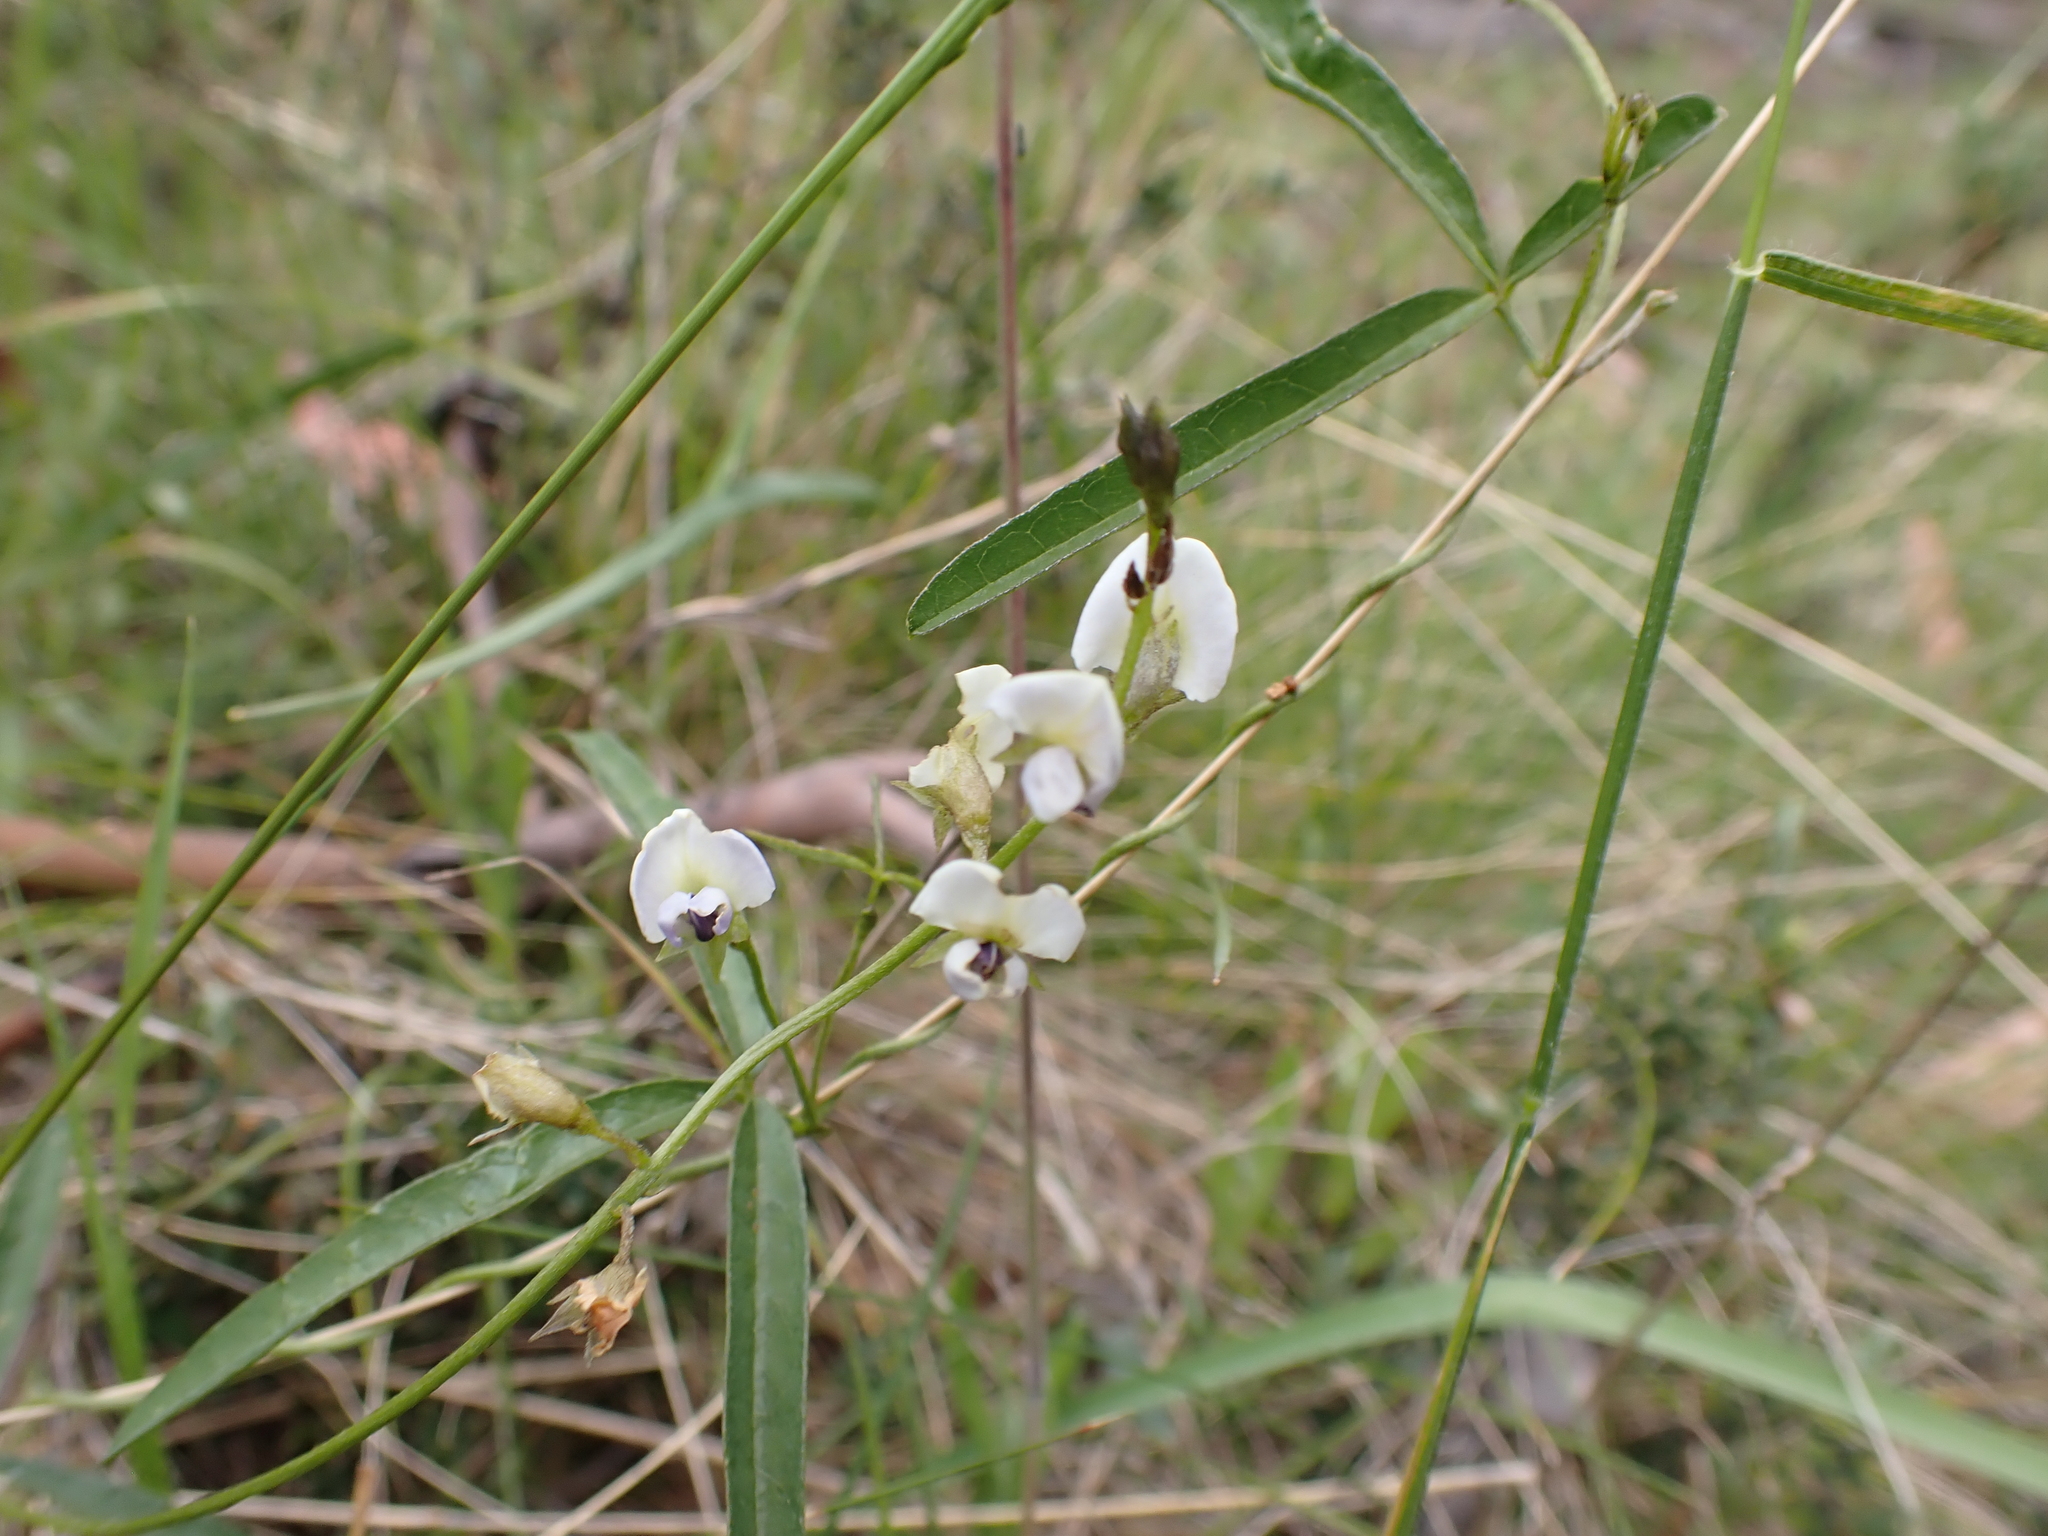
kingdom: Plantae
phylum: Tracheophyta
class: Magnoliopsida
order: Fabales
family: Fabaceae
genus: Glycine
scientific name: Glycine clandestina
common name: Twining glycine
